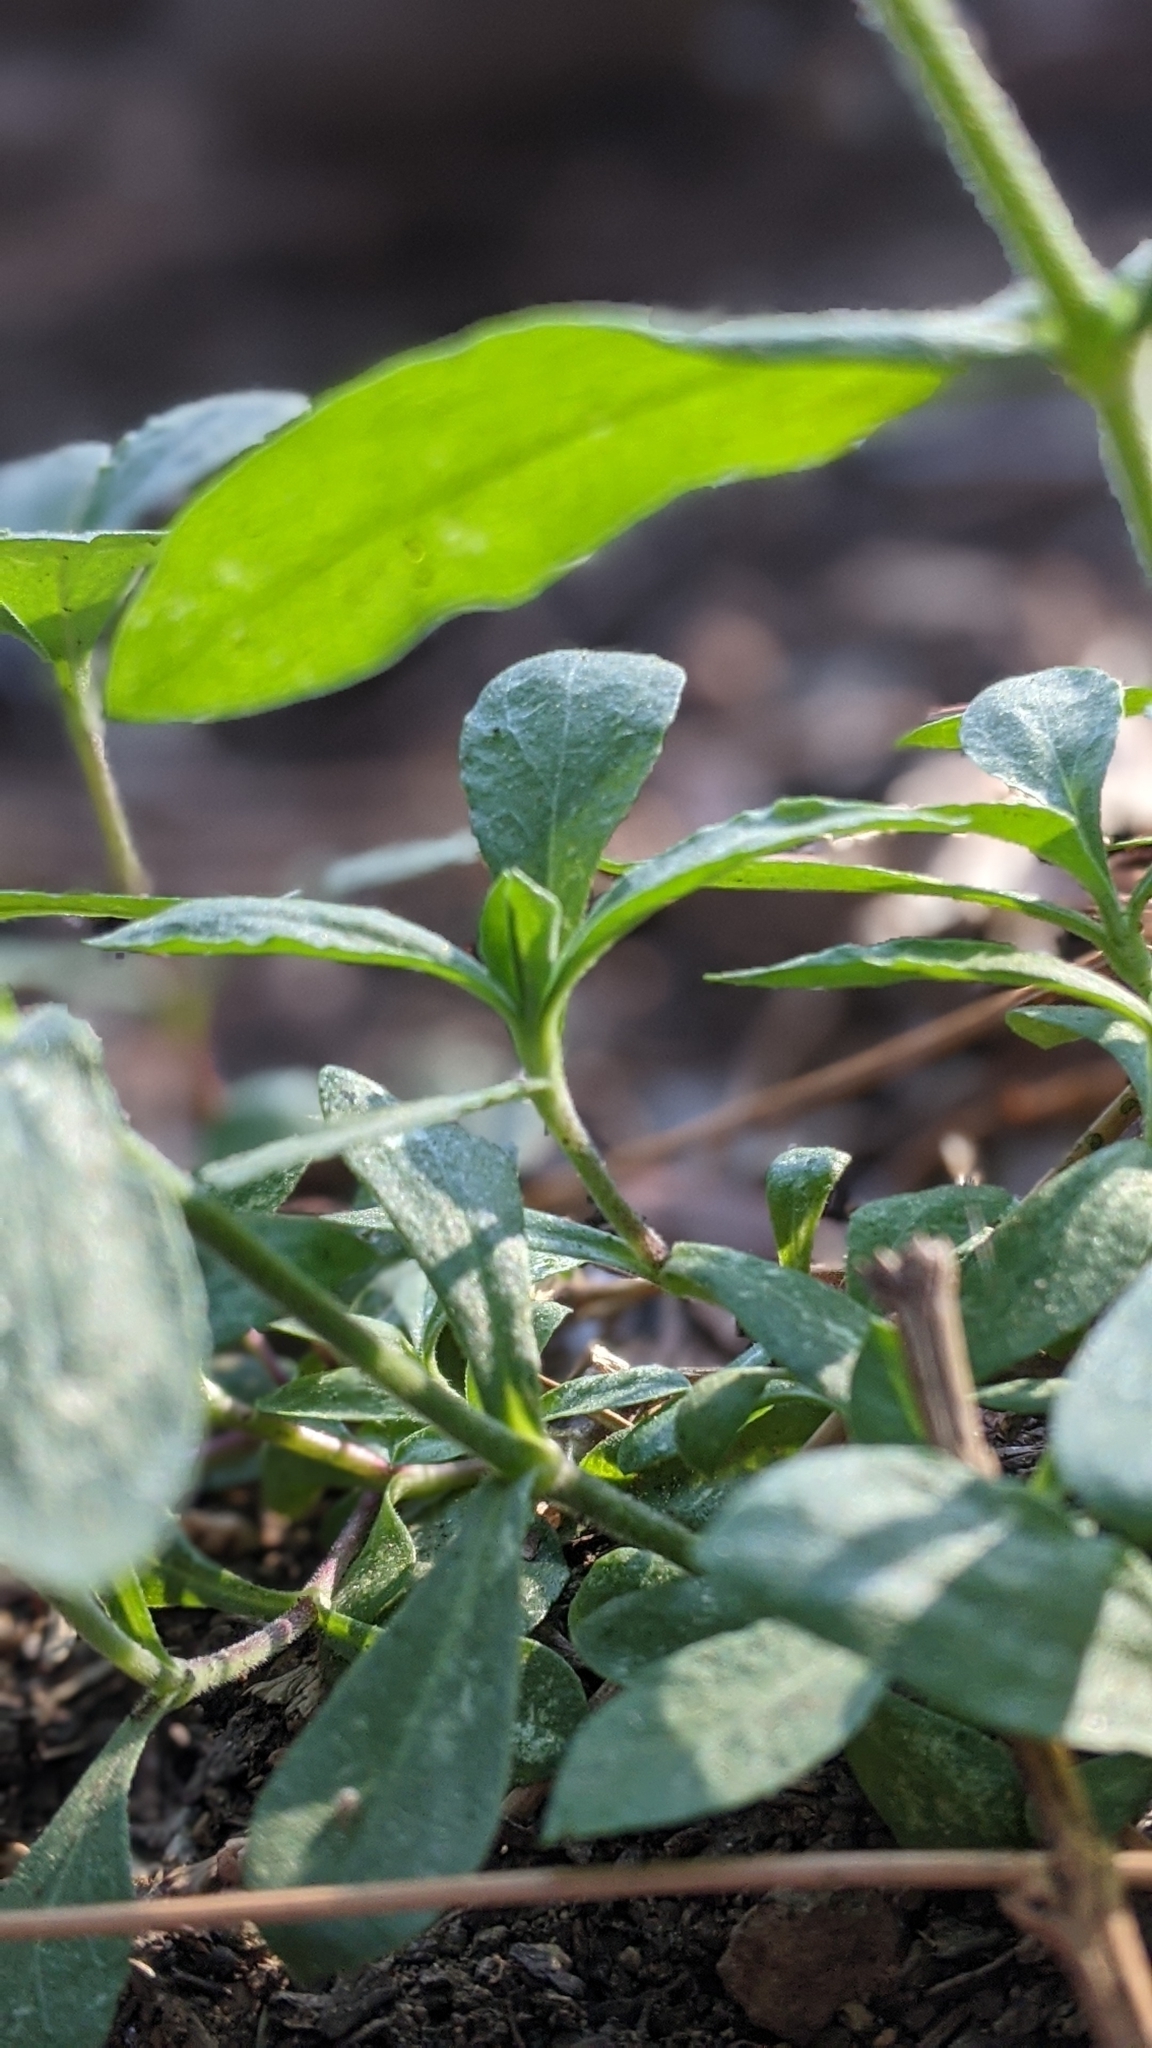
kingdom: Plantae
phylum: Tracheophyta
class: Magnoliopsida
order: Caryophyllales
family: Caryophyllaceae
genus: Silene
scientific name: Silene lemmonii
